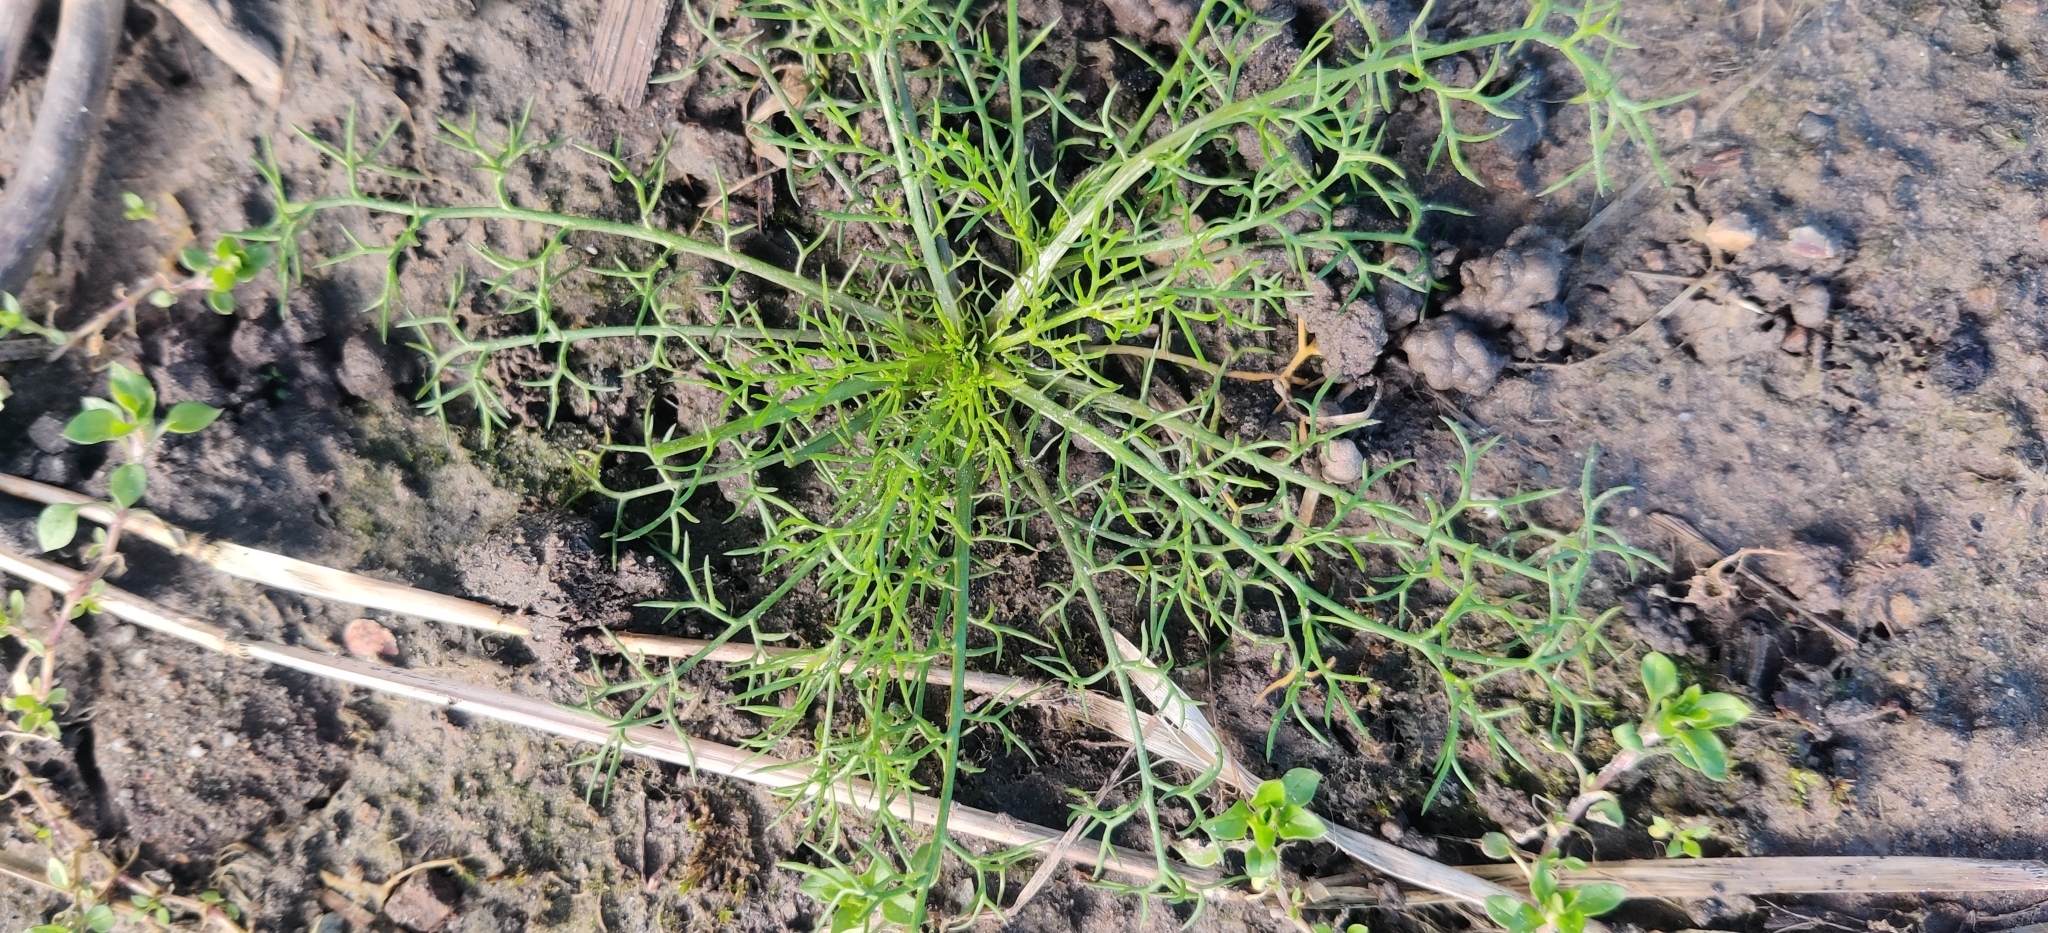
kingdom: Plantae
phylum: Tracheophyta
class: Magnoliopsida
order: Asterales
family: Asteraceae
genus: Tripleurospermum
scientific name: Tripleurospermum inodorum
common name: Scentless mayweed
